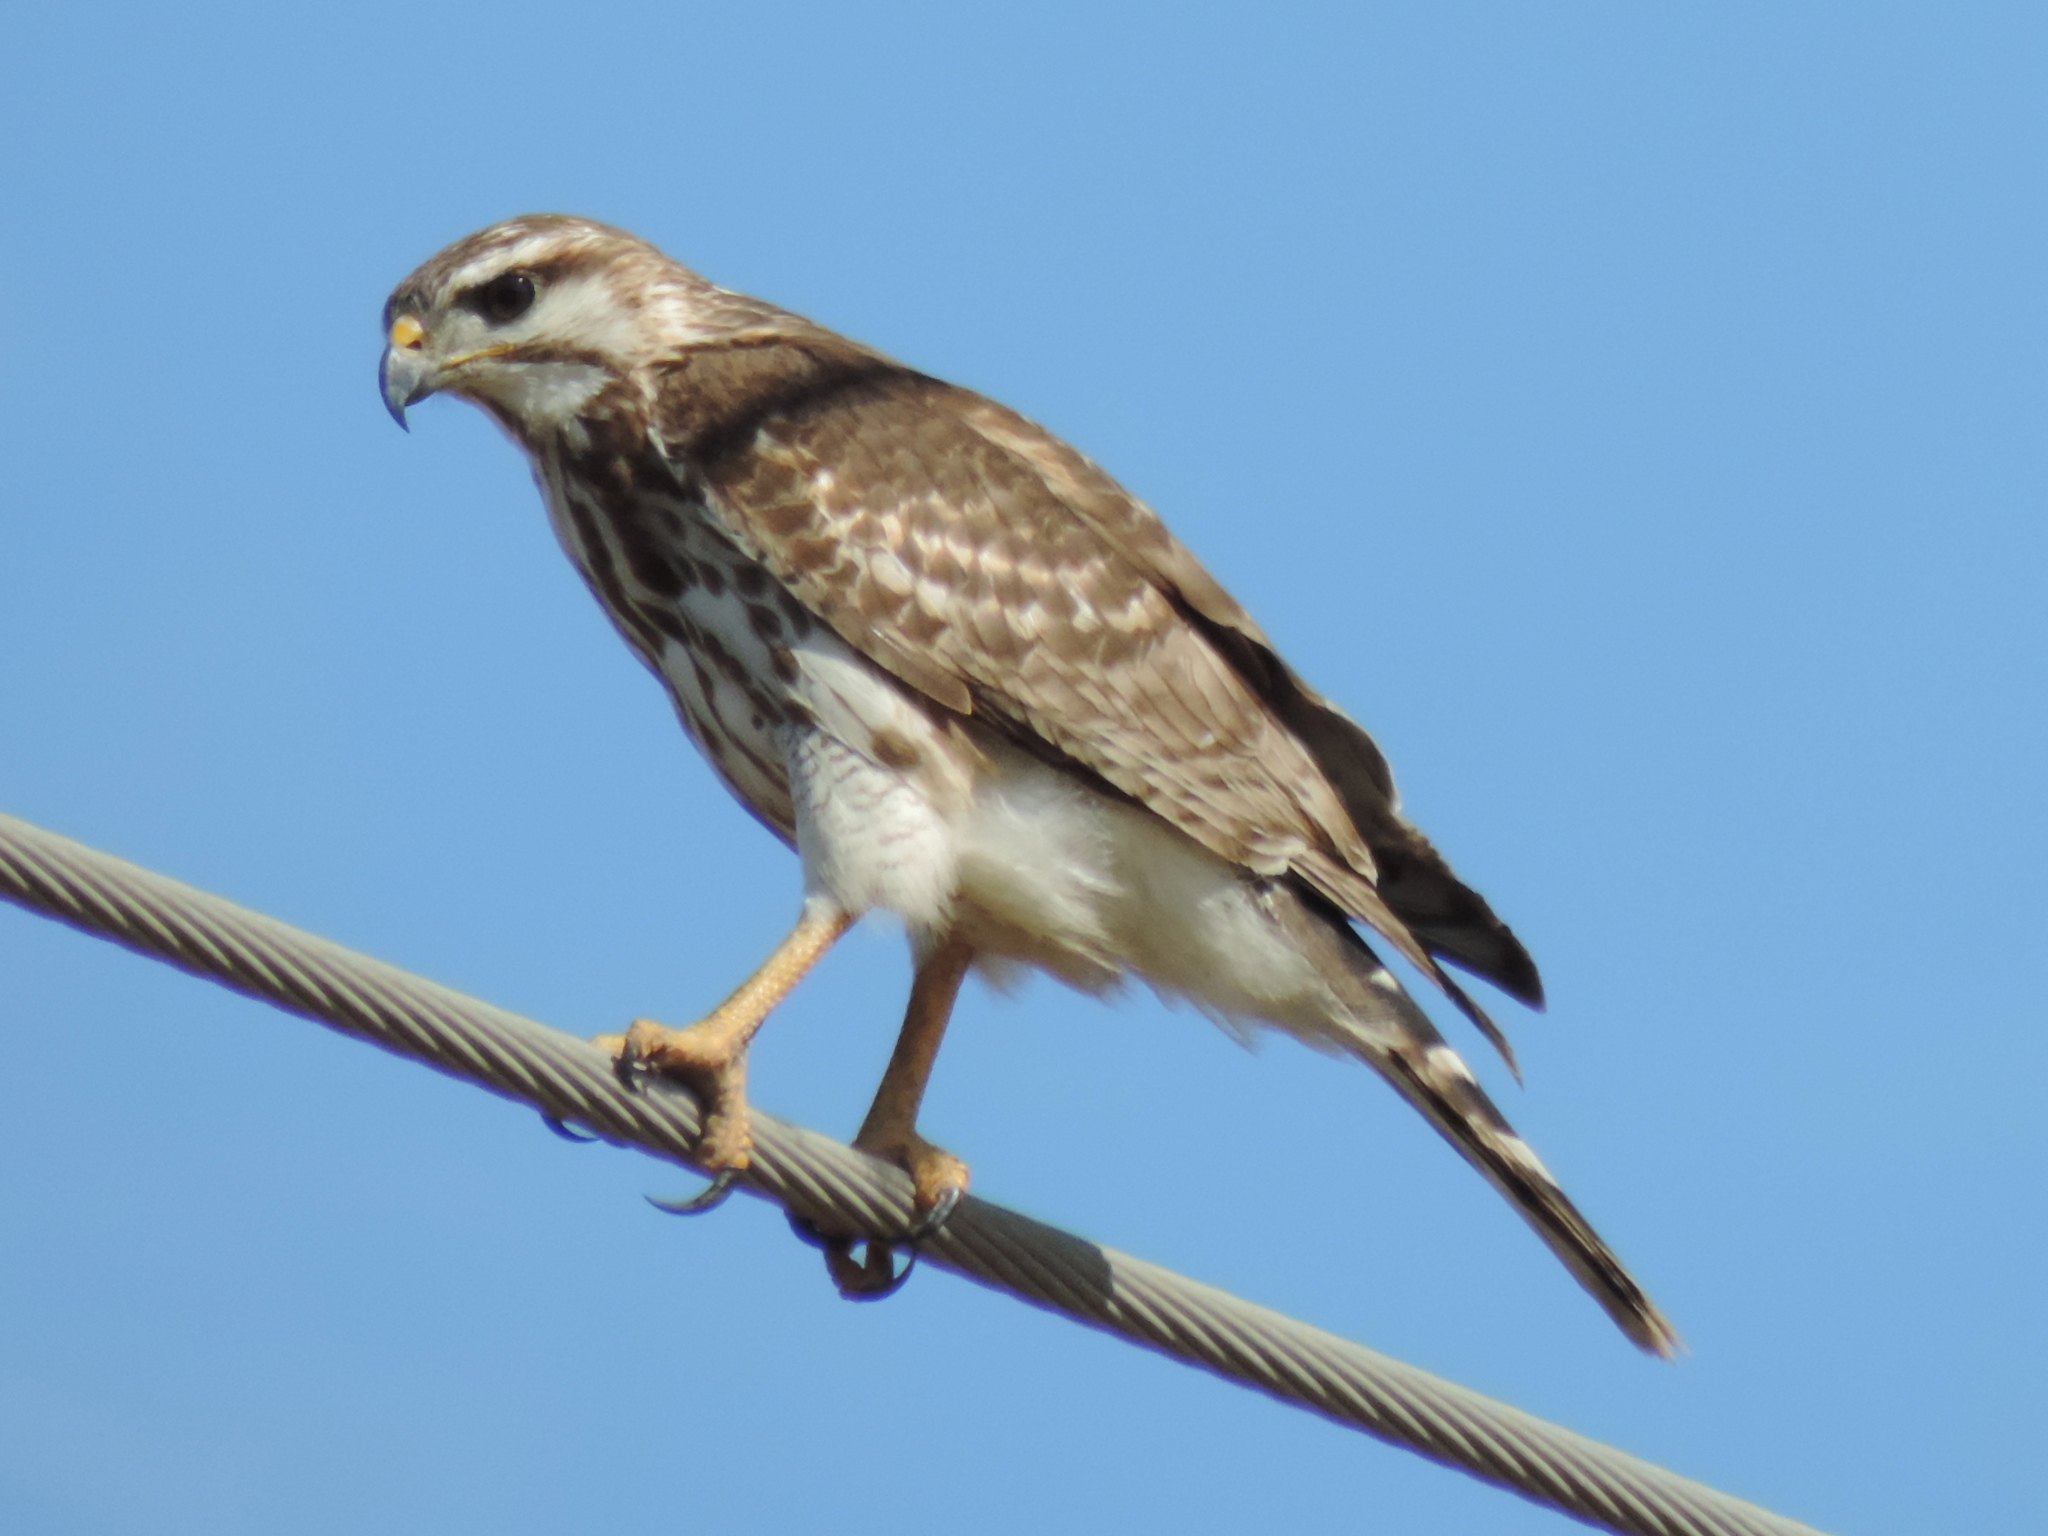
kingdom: Animalia
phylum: Chordata
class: Aves
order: Accipitriformes
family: Accipitridae
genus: Buteo
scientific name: Buteo nitidus
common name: Grey-lined hawk
